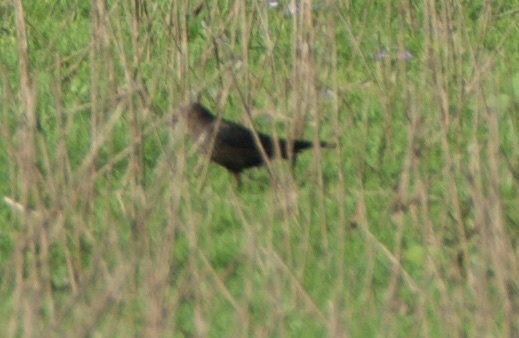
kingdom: Animalia
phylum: Chordata
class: Aves
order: Passeriformes
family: Icteridae
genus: Euphagus
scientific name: Euphagus cyanocephalus
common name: Brewer's blackbird
